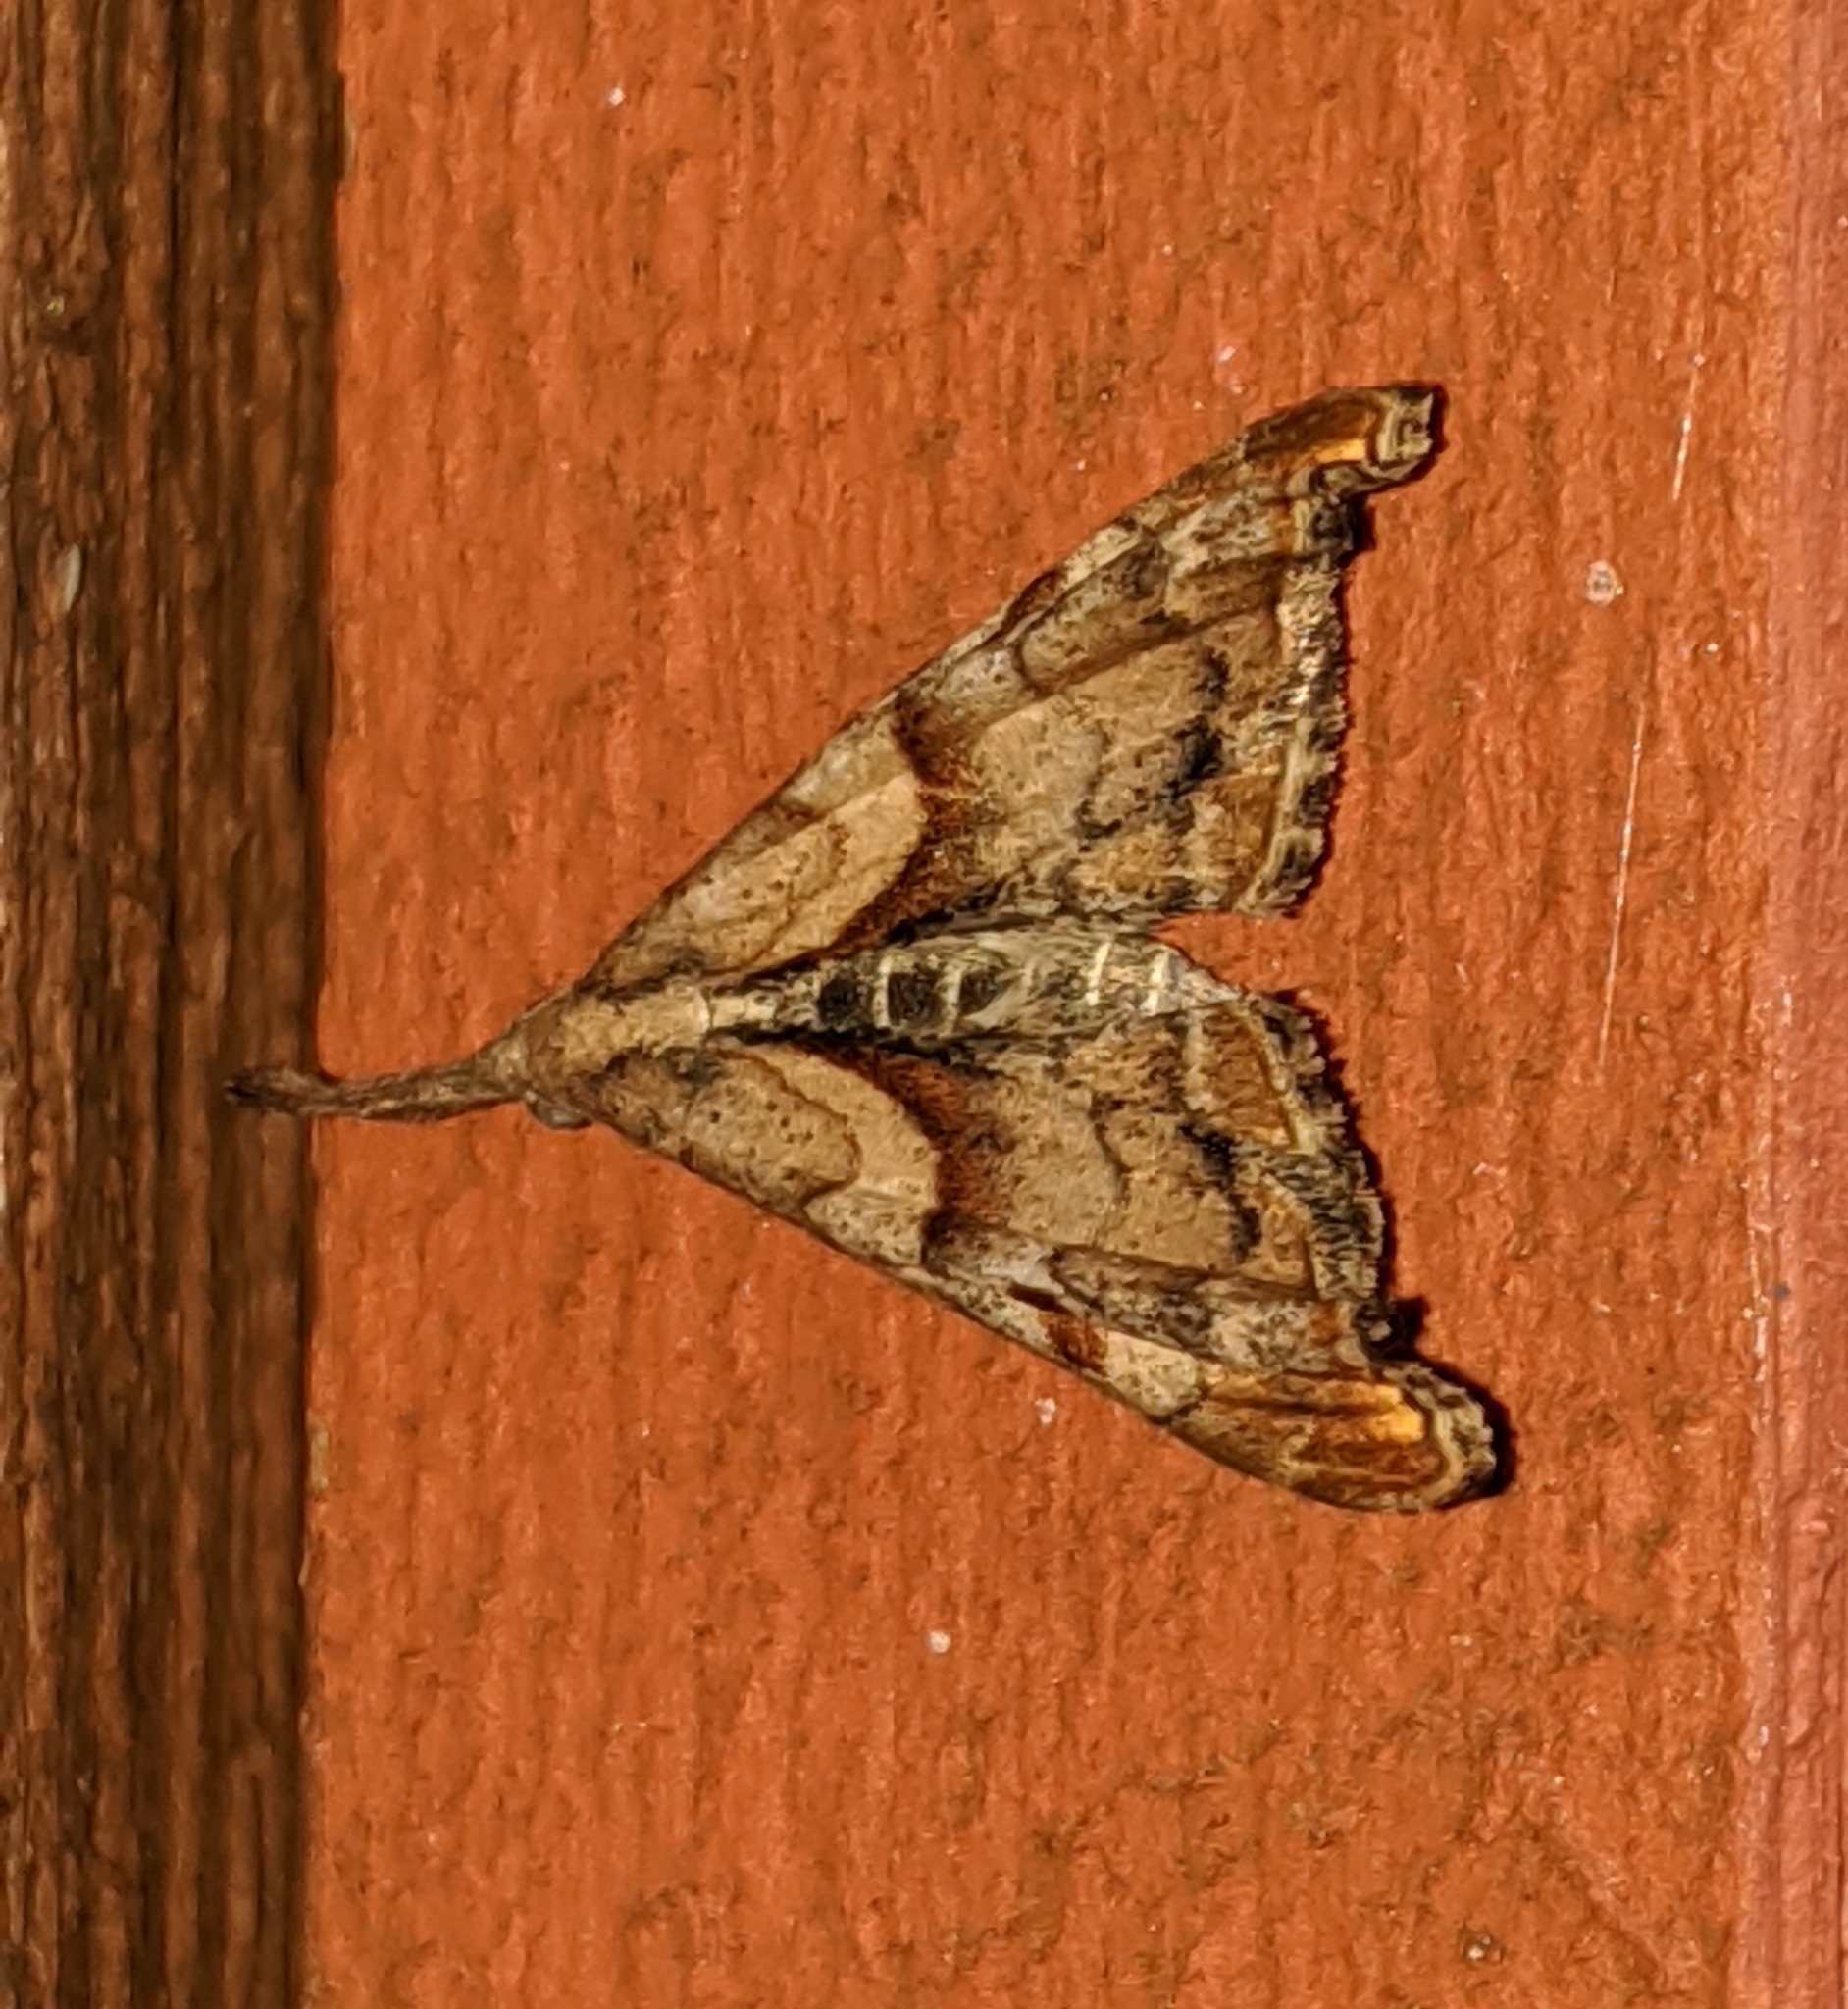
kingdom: Animalia
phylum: Arthropoda
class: Insecta
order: Lepidoptera
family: Erebidae
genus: Palthis
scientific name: Palthis angulalis
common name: Dark-spotted palthis moth
